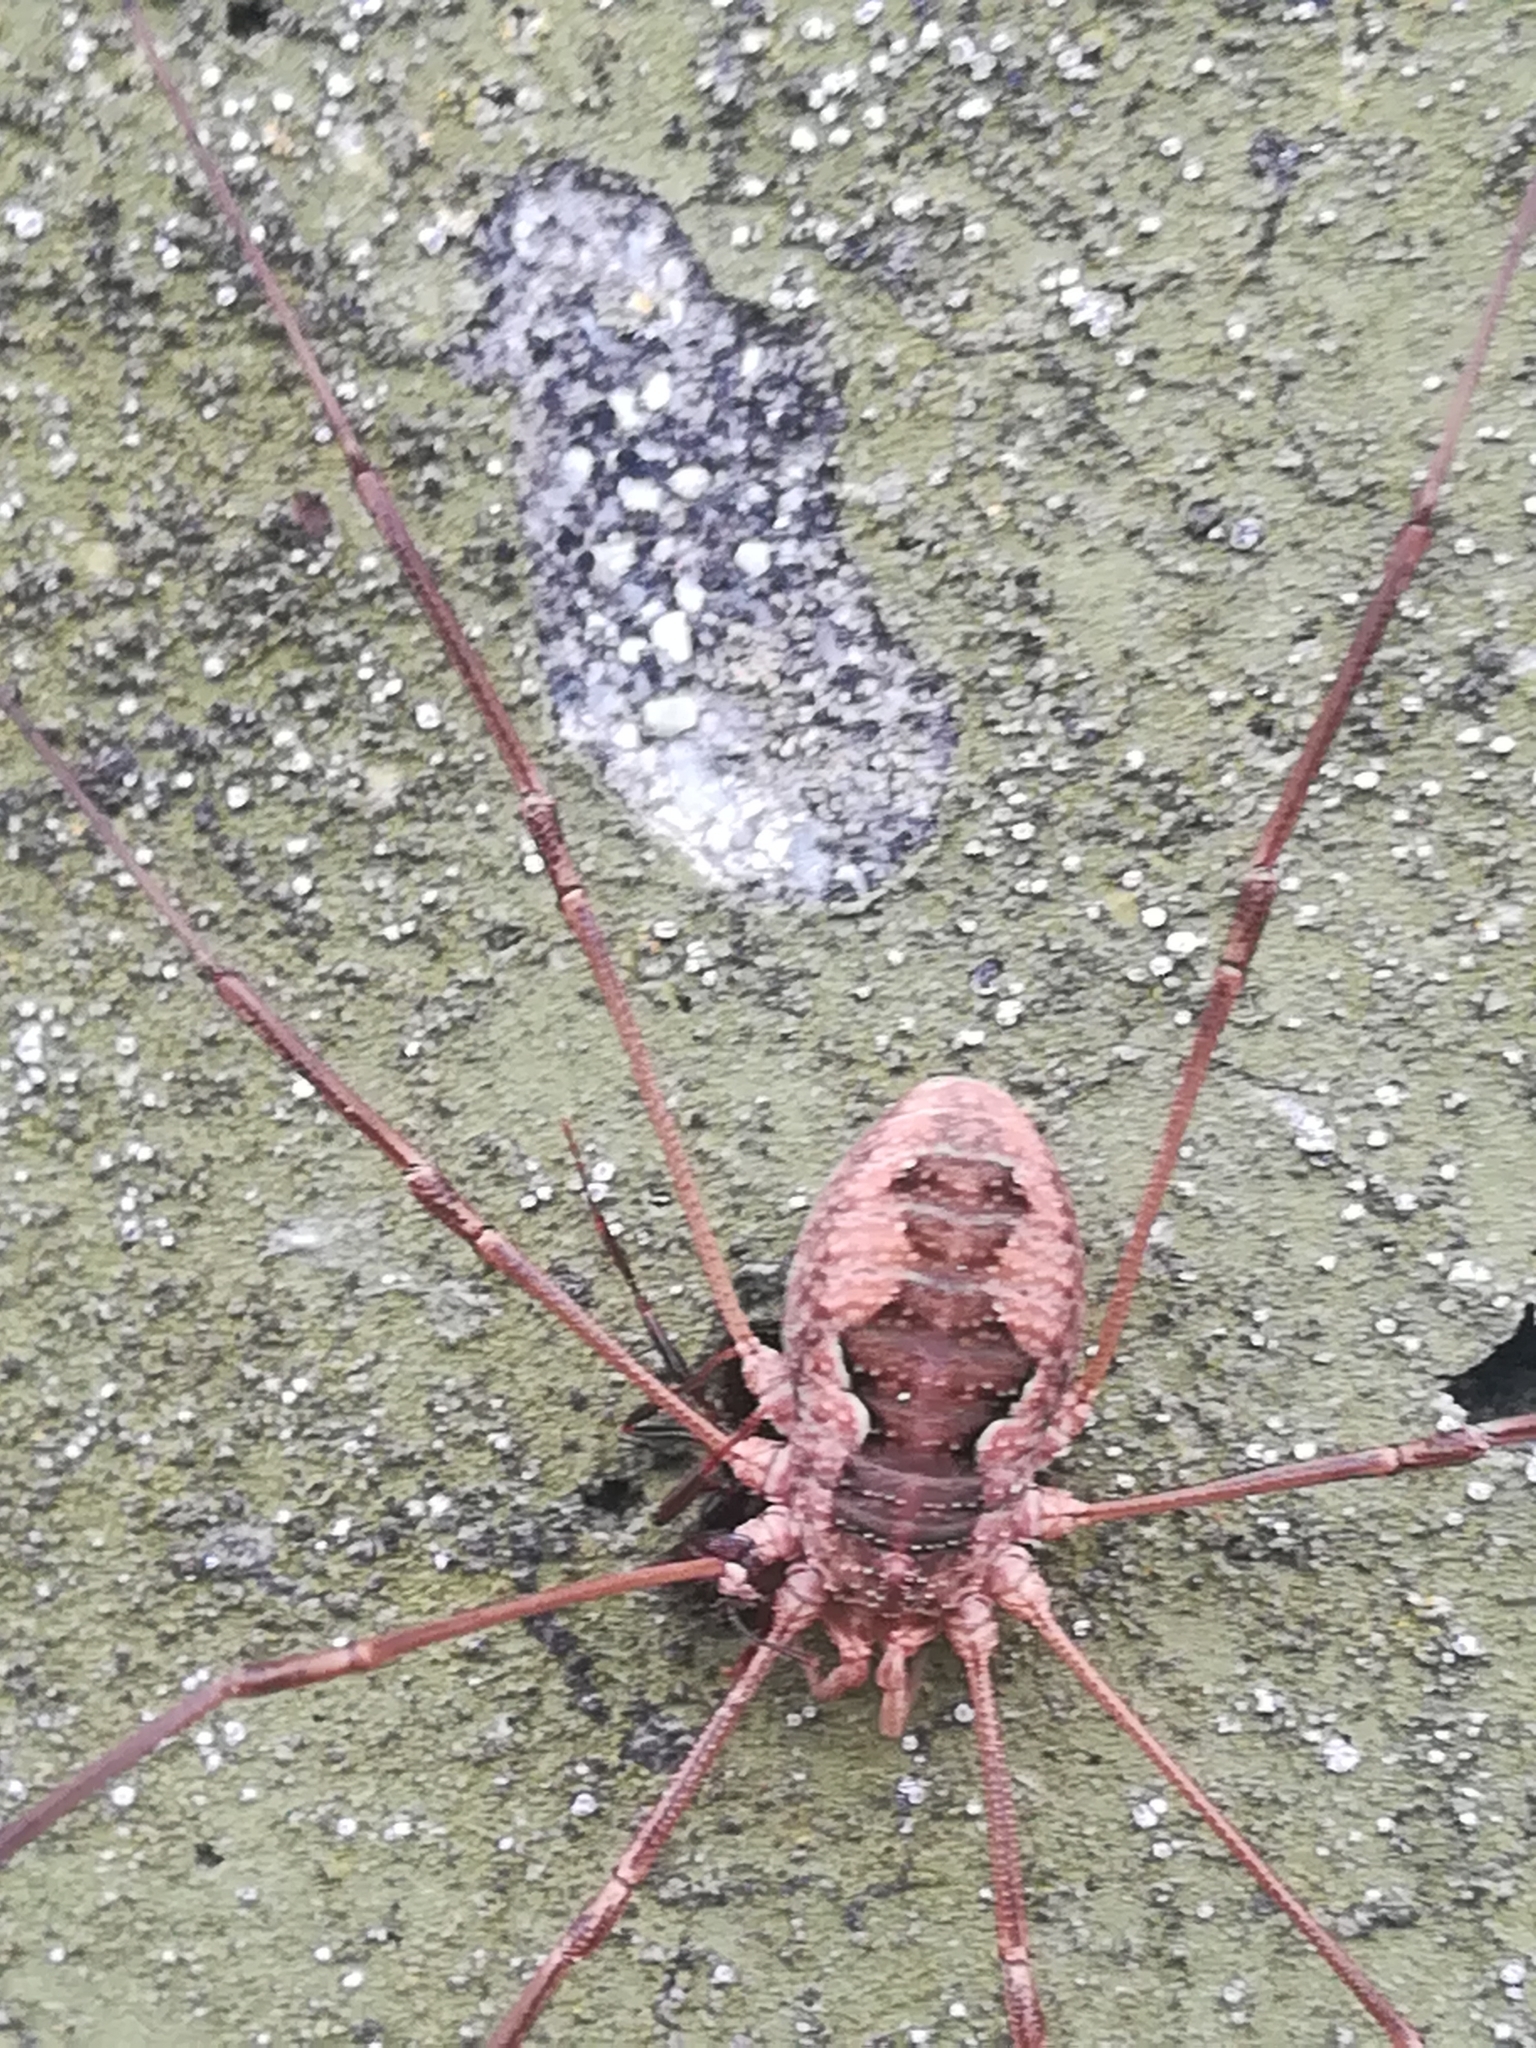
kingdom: Animalia
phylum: Arthropoda
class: Arachnida
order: Opiliones
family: Phalangiidae
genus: Phalangium
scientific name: Phalangium opilio
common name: Daddy longleg
